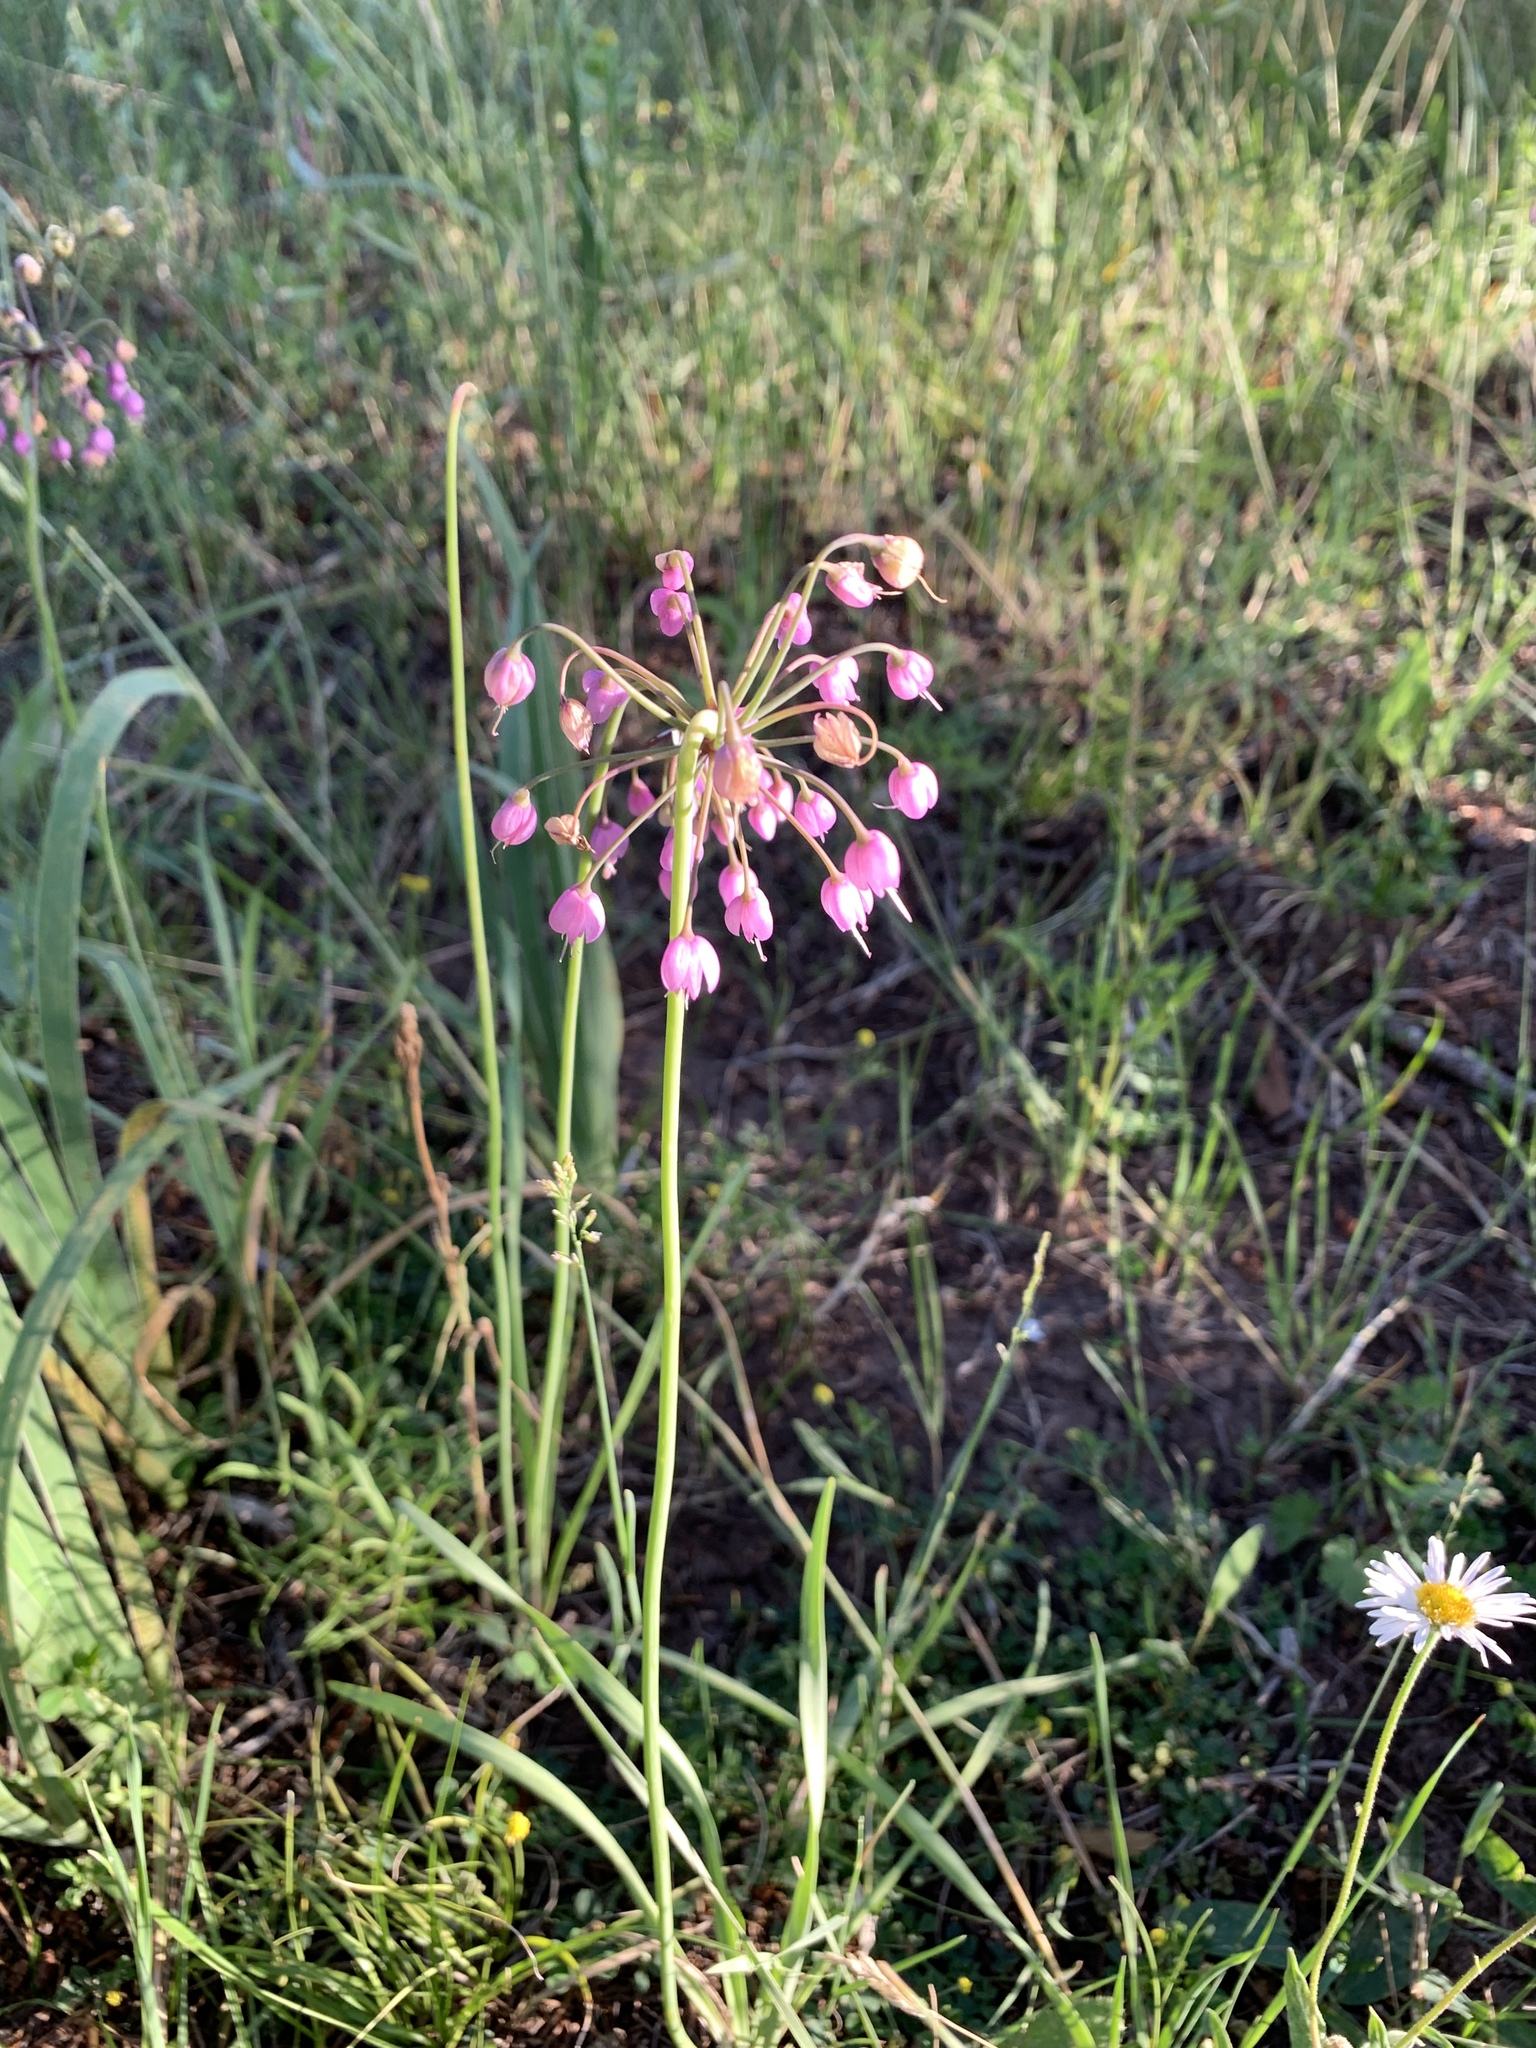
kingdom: Plantae
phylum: Tracheophyta
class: Liliopsida
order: Asparagales
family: Amaryllidaceae
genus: Allium
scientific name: Allium cernuum
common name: Nodding onion
